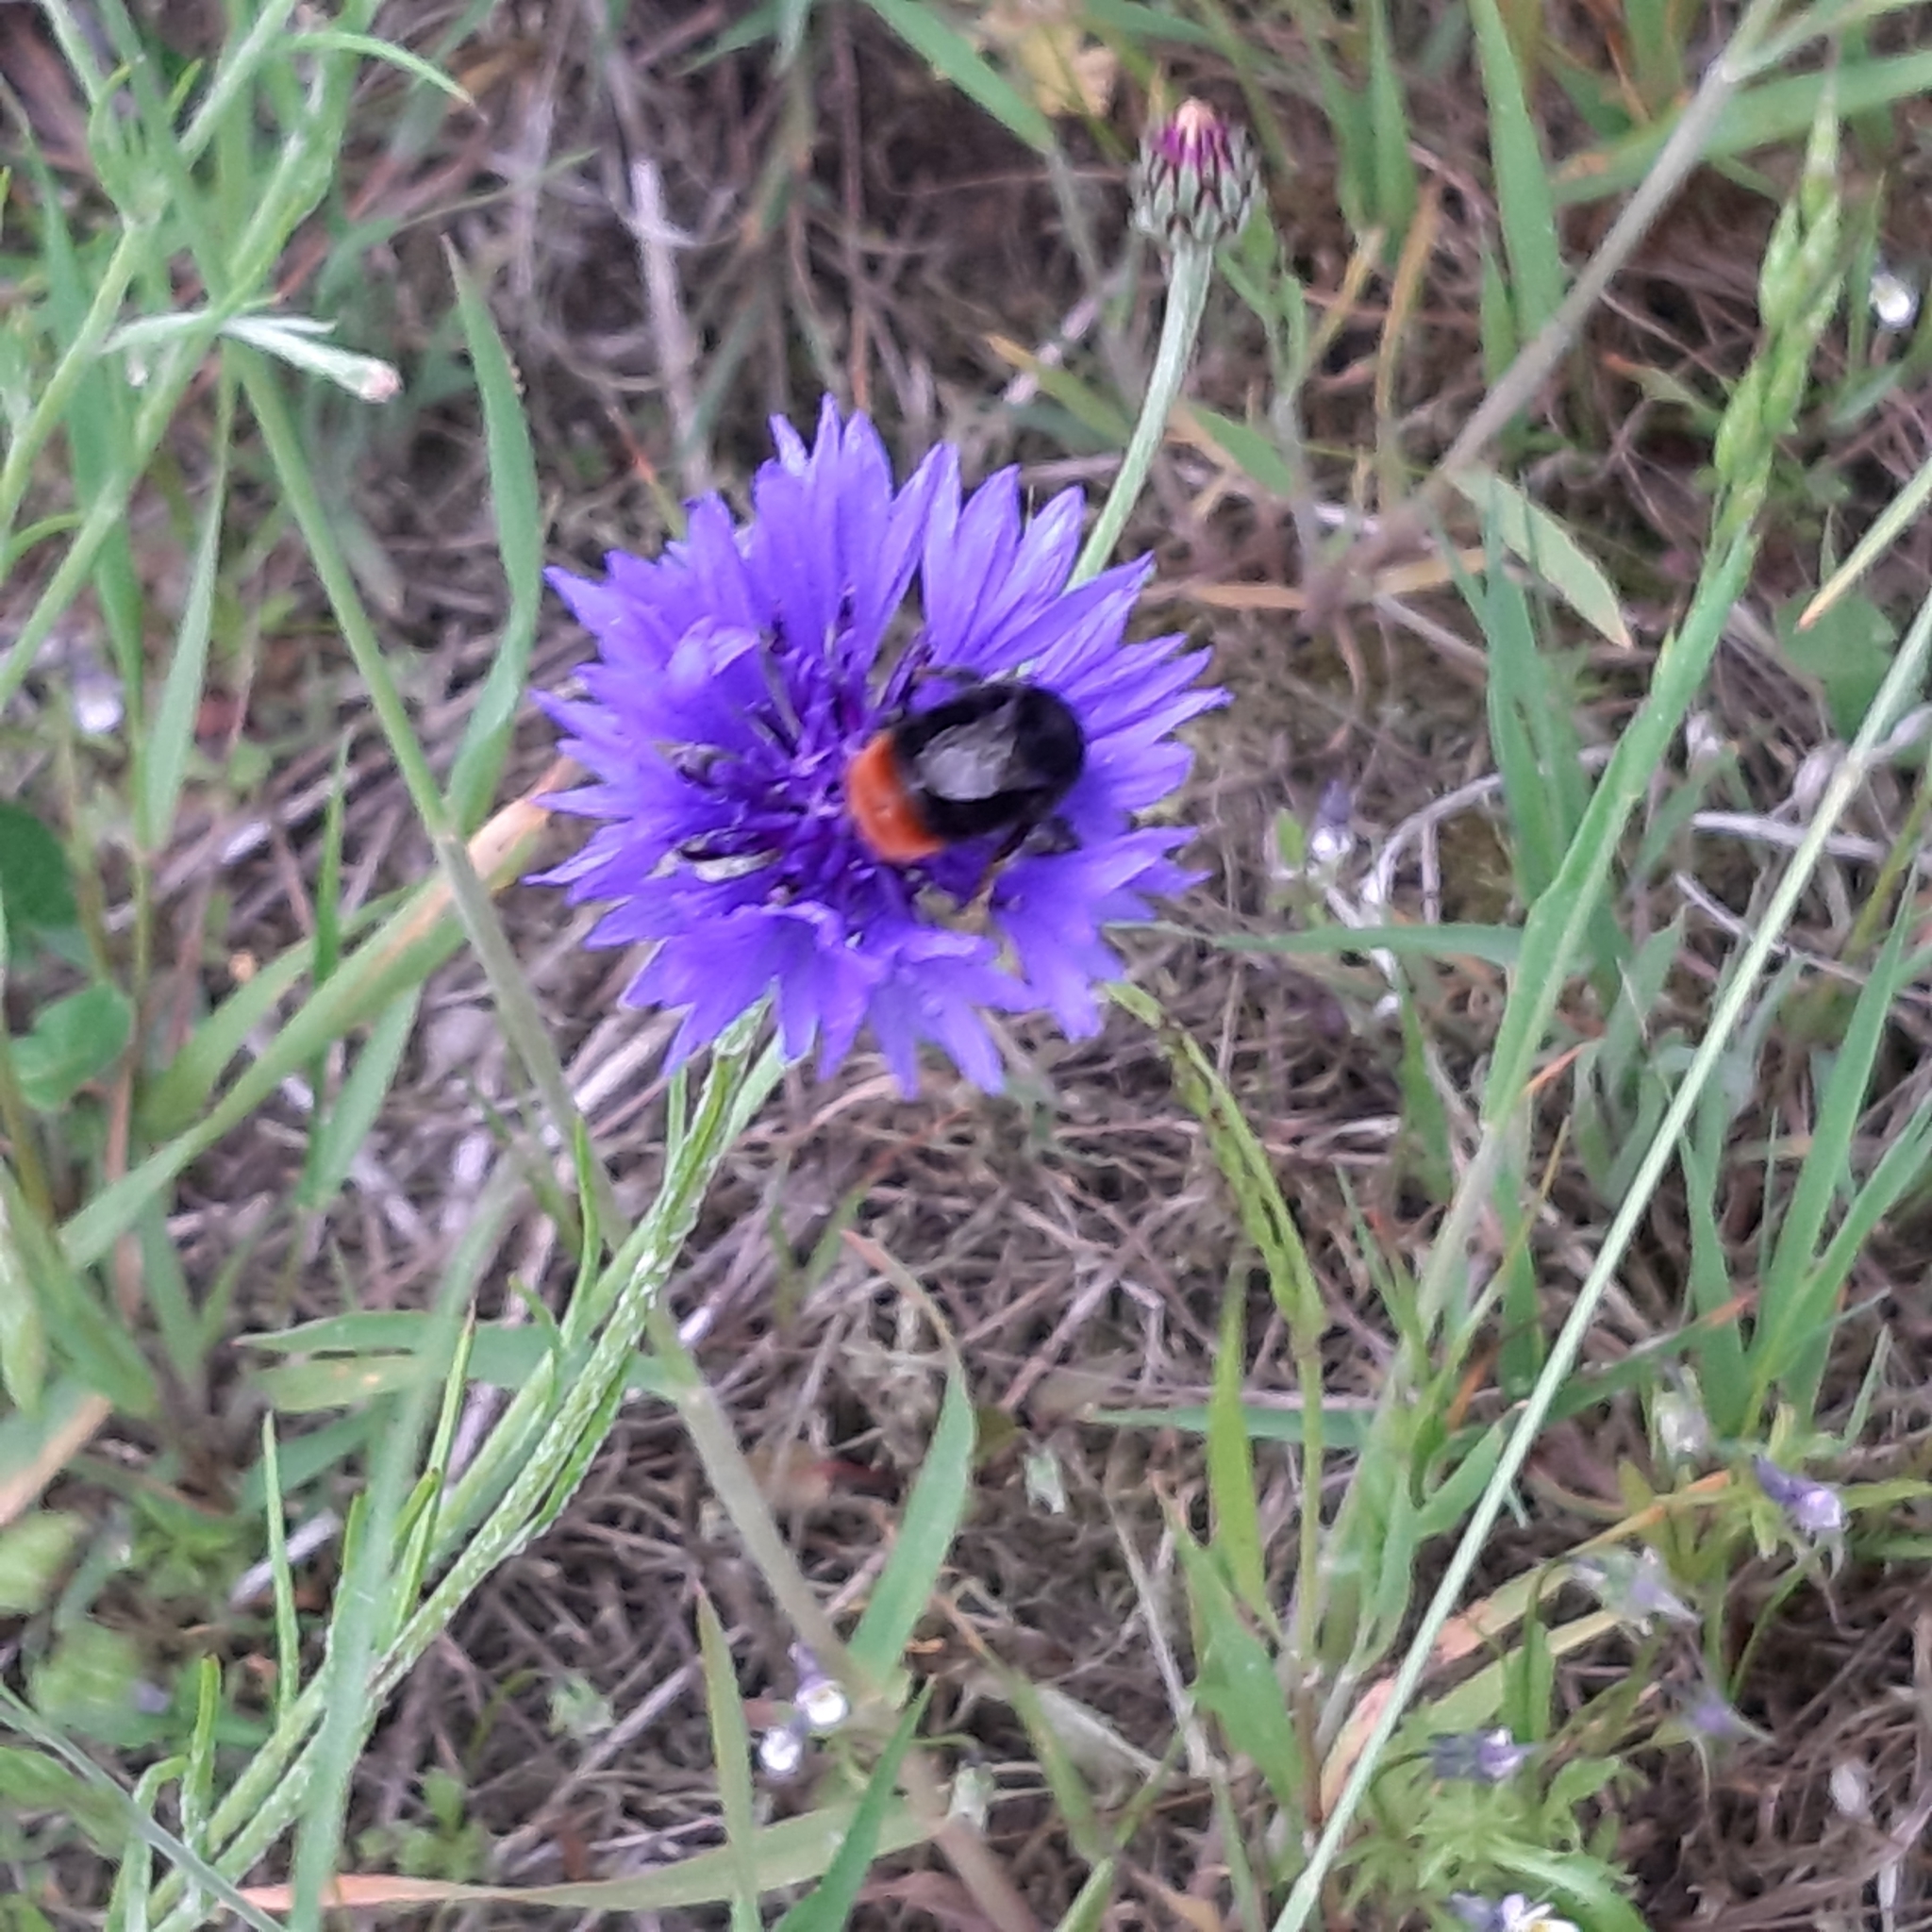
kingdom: Animalia
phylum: Arthropoda
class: Insecta
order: Hymenoptera
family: Apidae
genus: Bombus
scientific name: Bombus lapidarius
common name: Large red-tailed humble-bee
